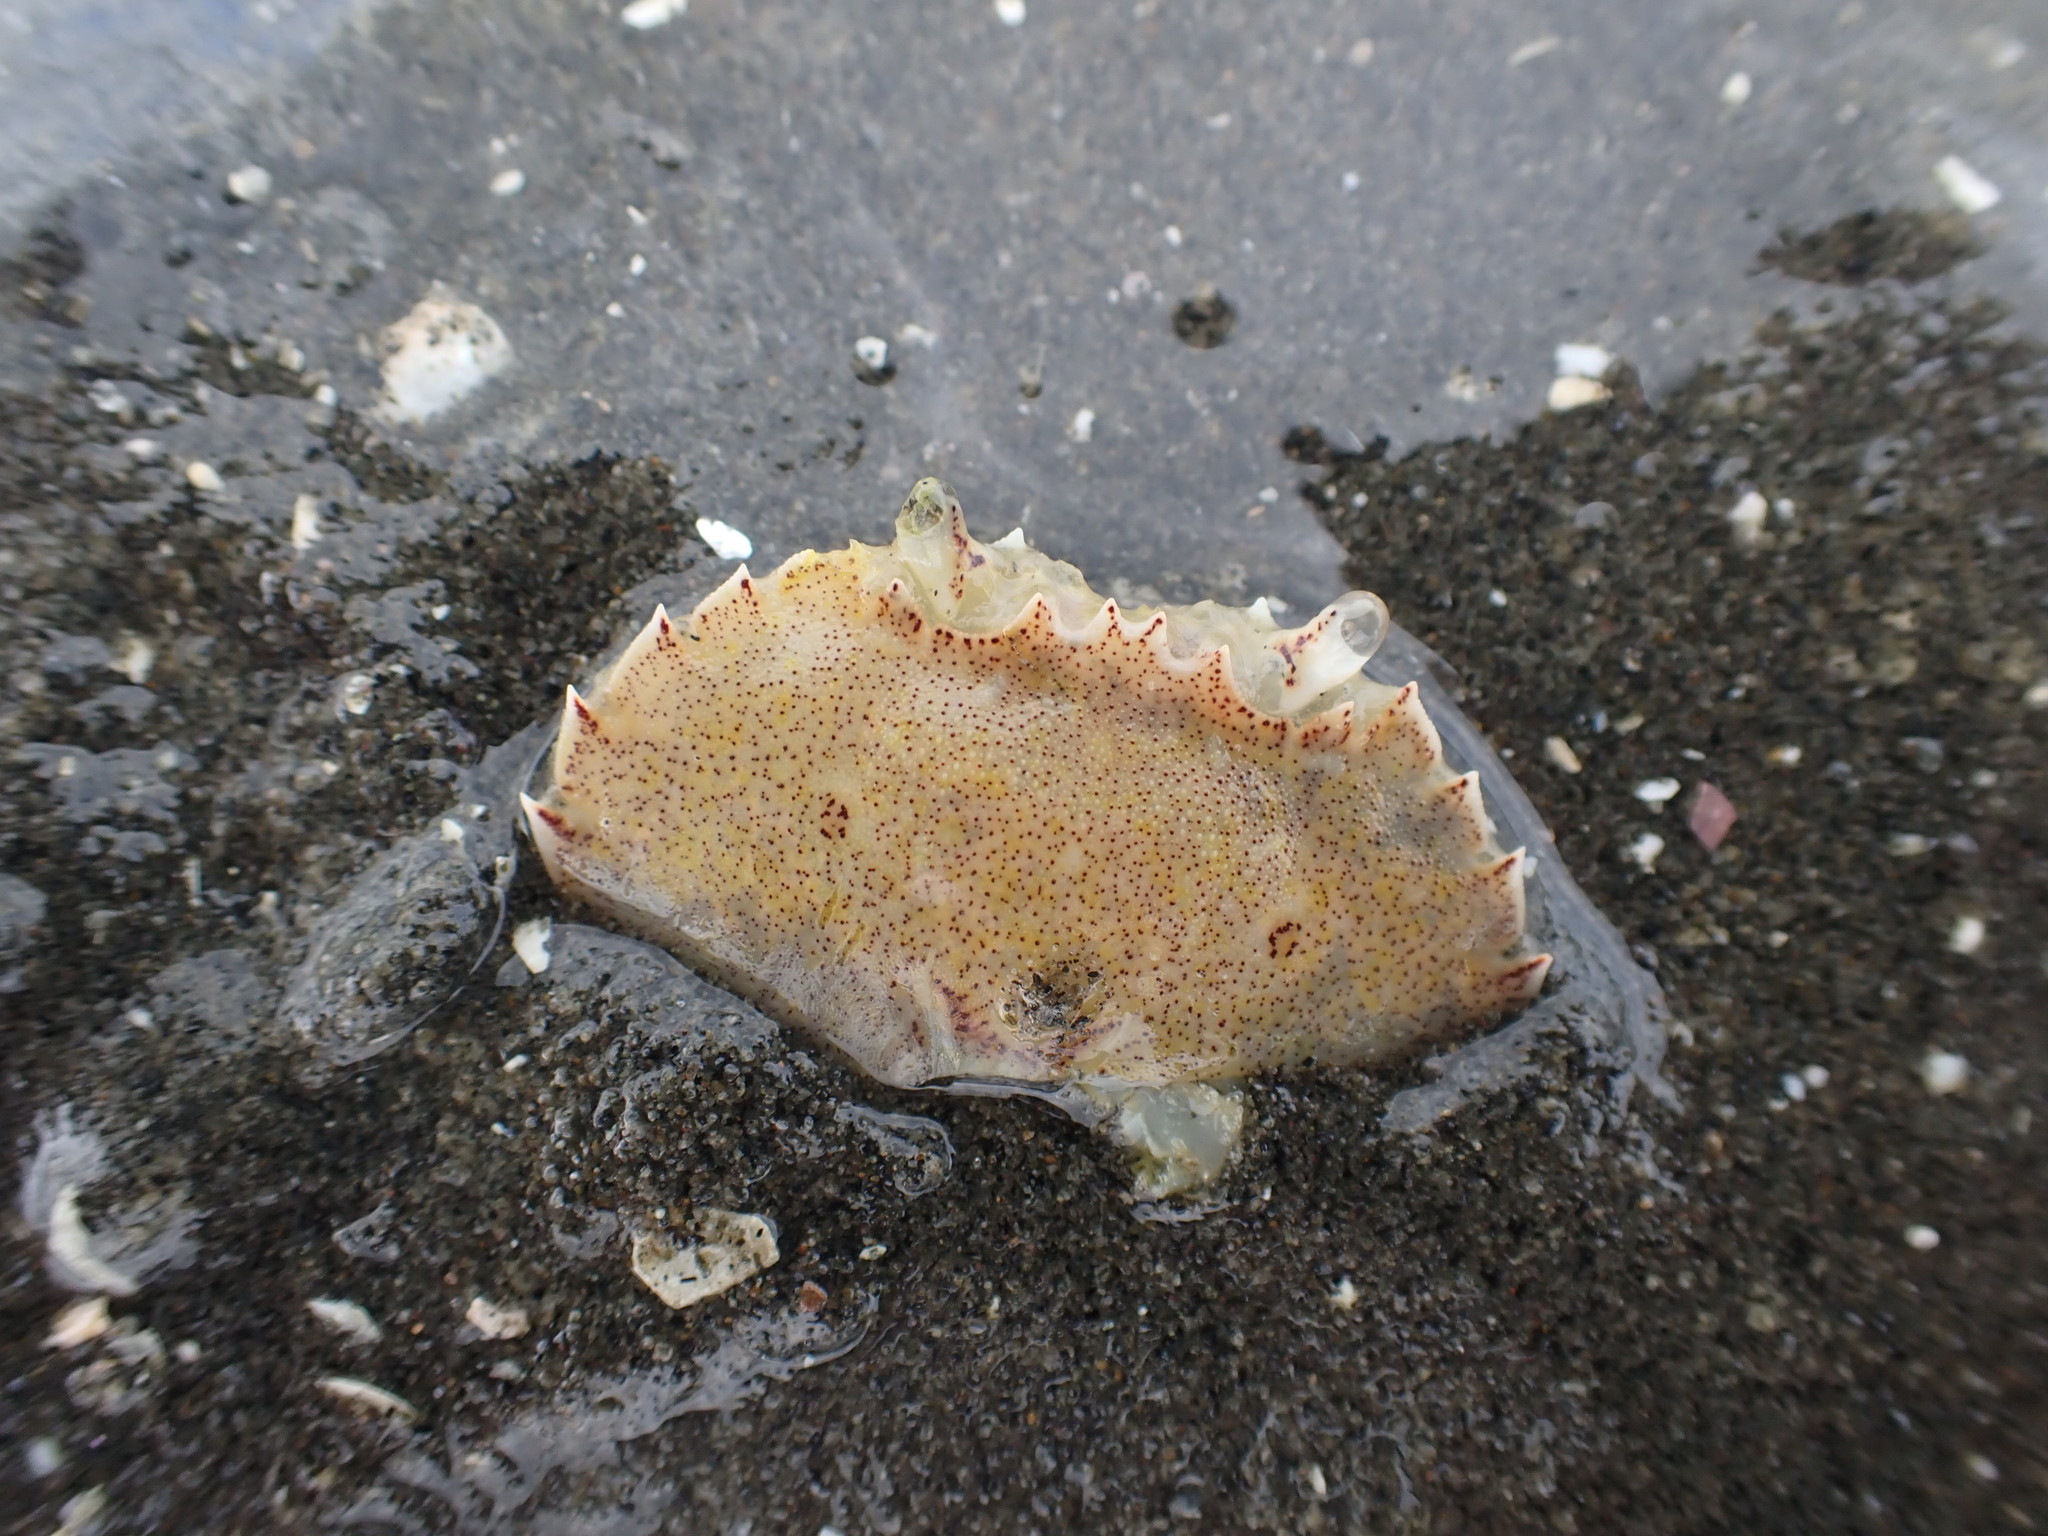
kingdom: Animalia
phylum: Arthropoda
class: Malacostraca
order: Decapoda
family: Ovalipidae
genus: Ovalipes
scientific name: Ovalipes catharus
